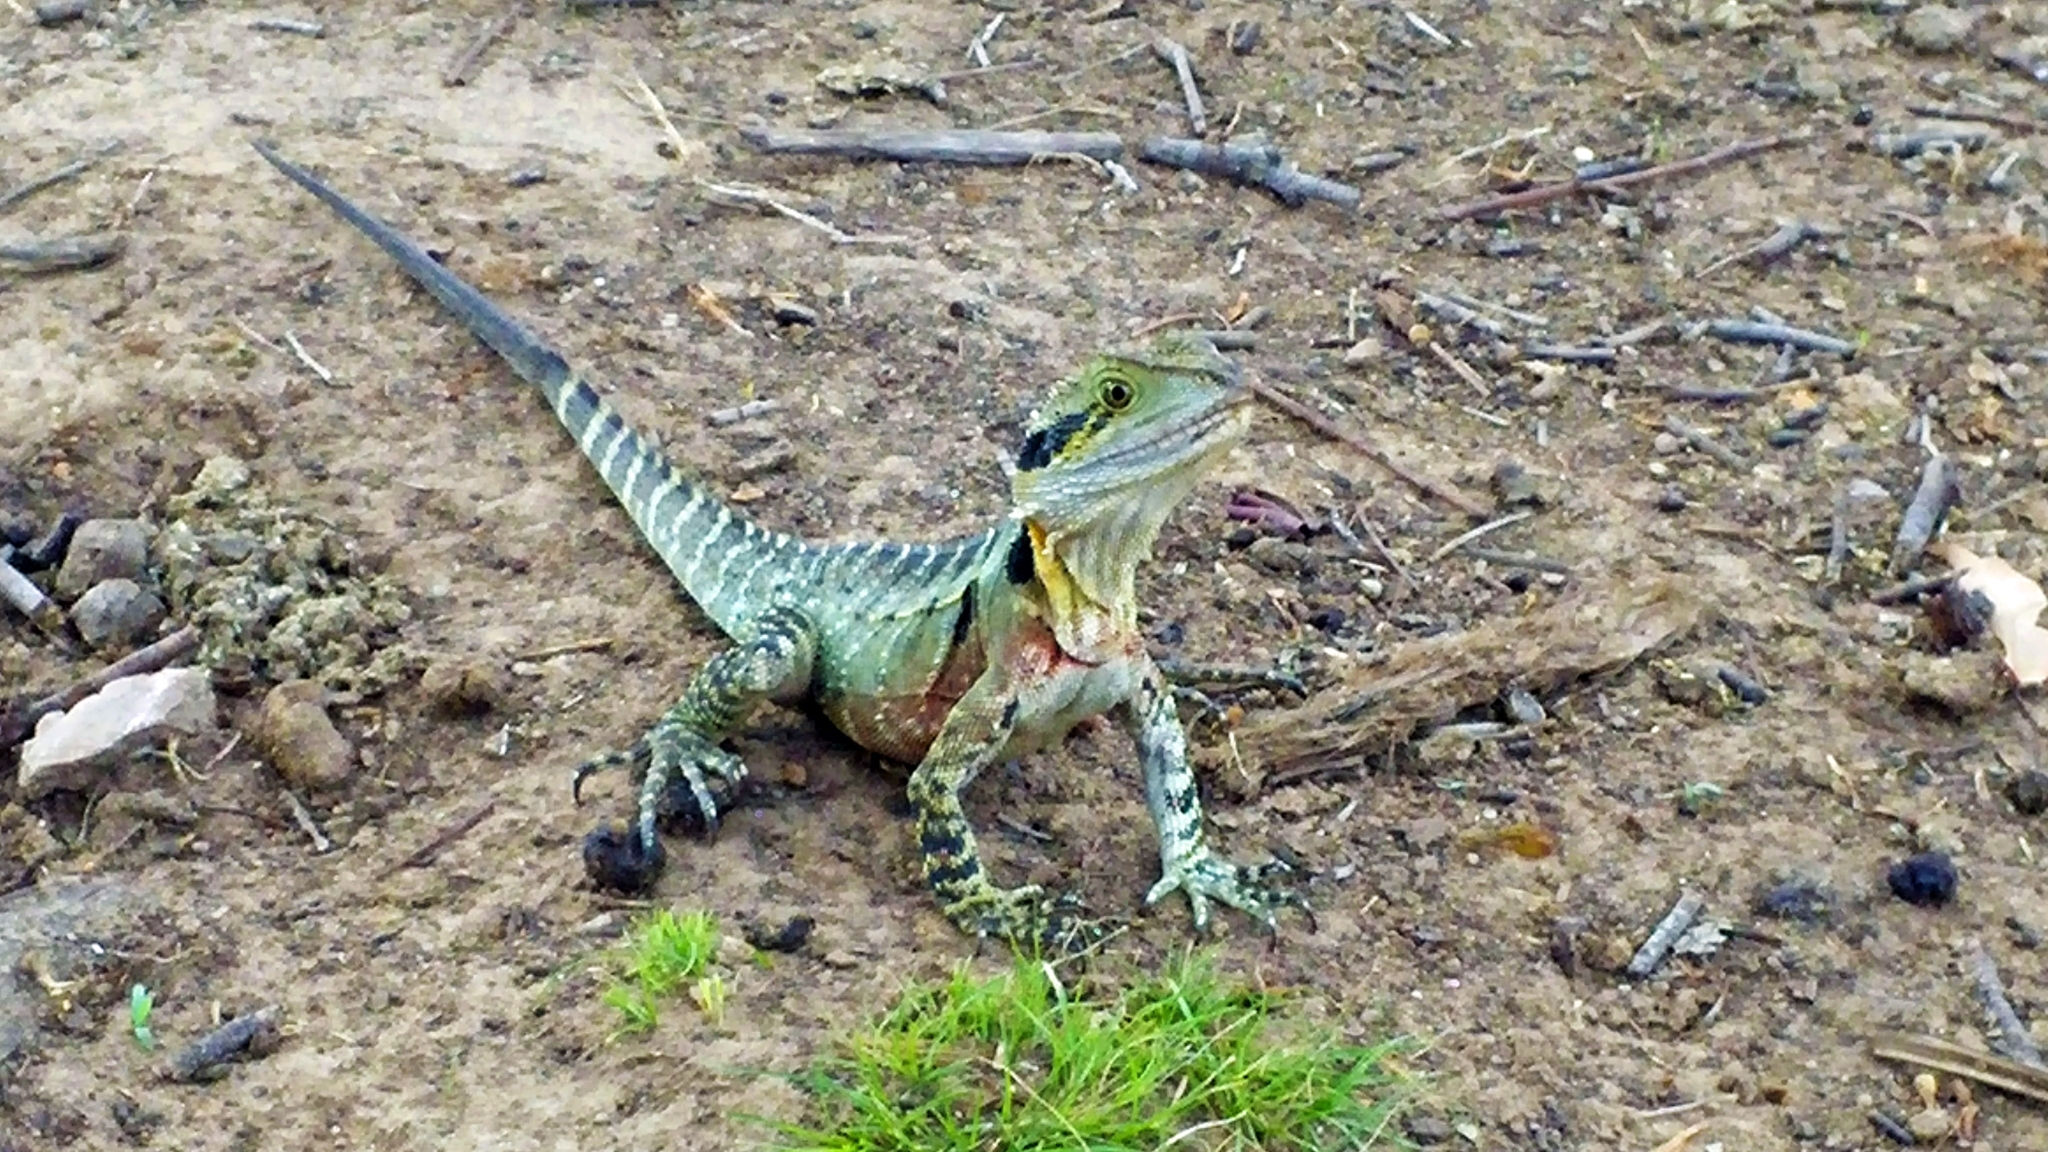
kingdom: Animalia
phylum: Chordata
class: Squamata
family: Agamidae
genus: Intellagama
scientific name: Intellagama lesueurii
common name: Eastern water dragon
